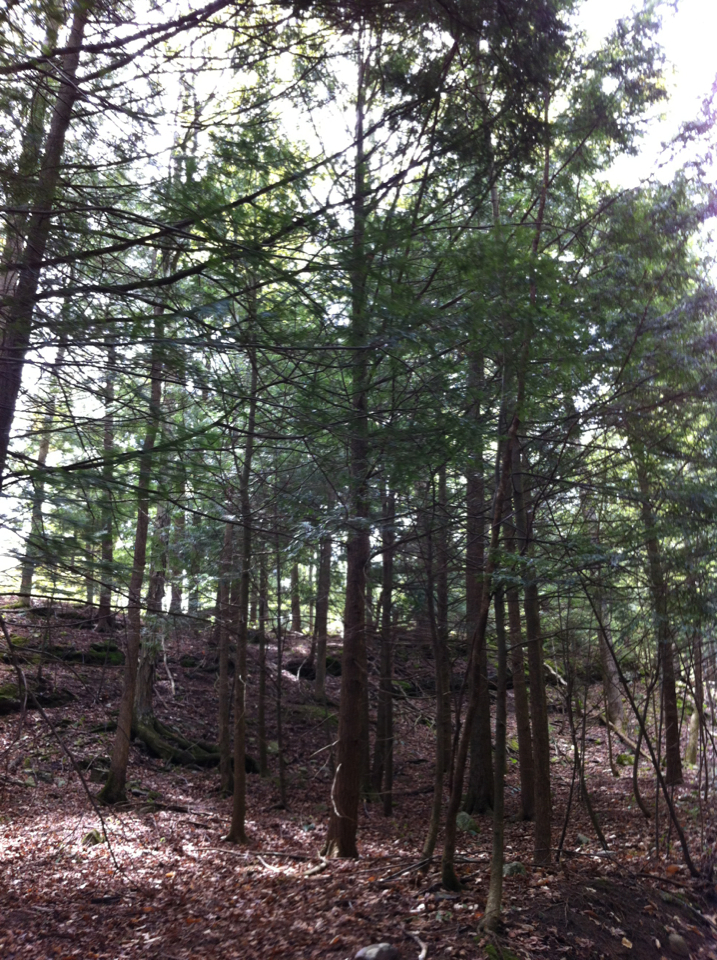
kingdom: Plantae
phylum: Tracheophyta
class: Pinopsida
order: Pinales
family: Pinaceae
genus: Tsuga
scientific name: Tsuga canadensis
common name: Eastern hemlock
